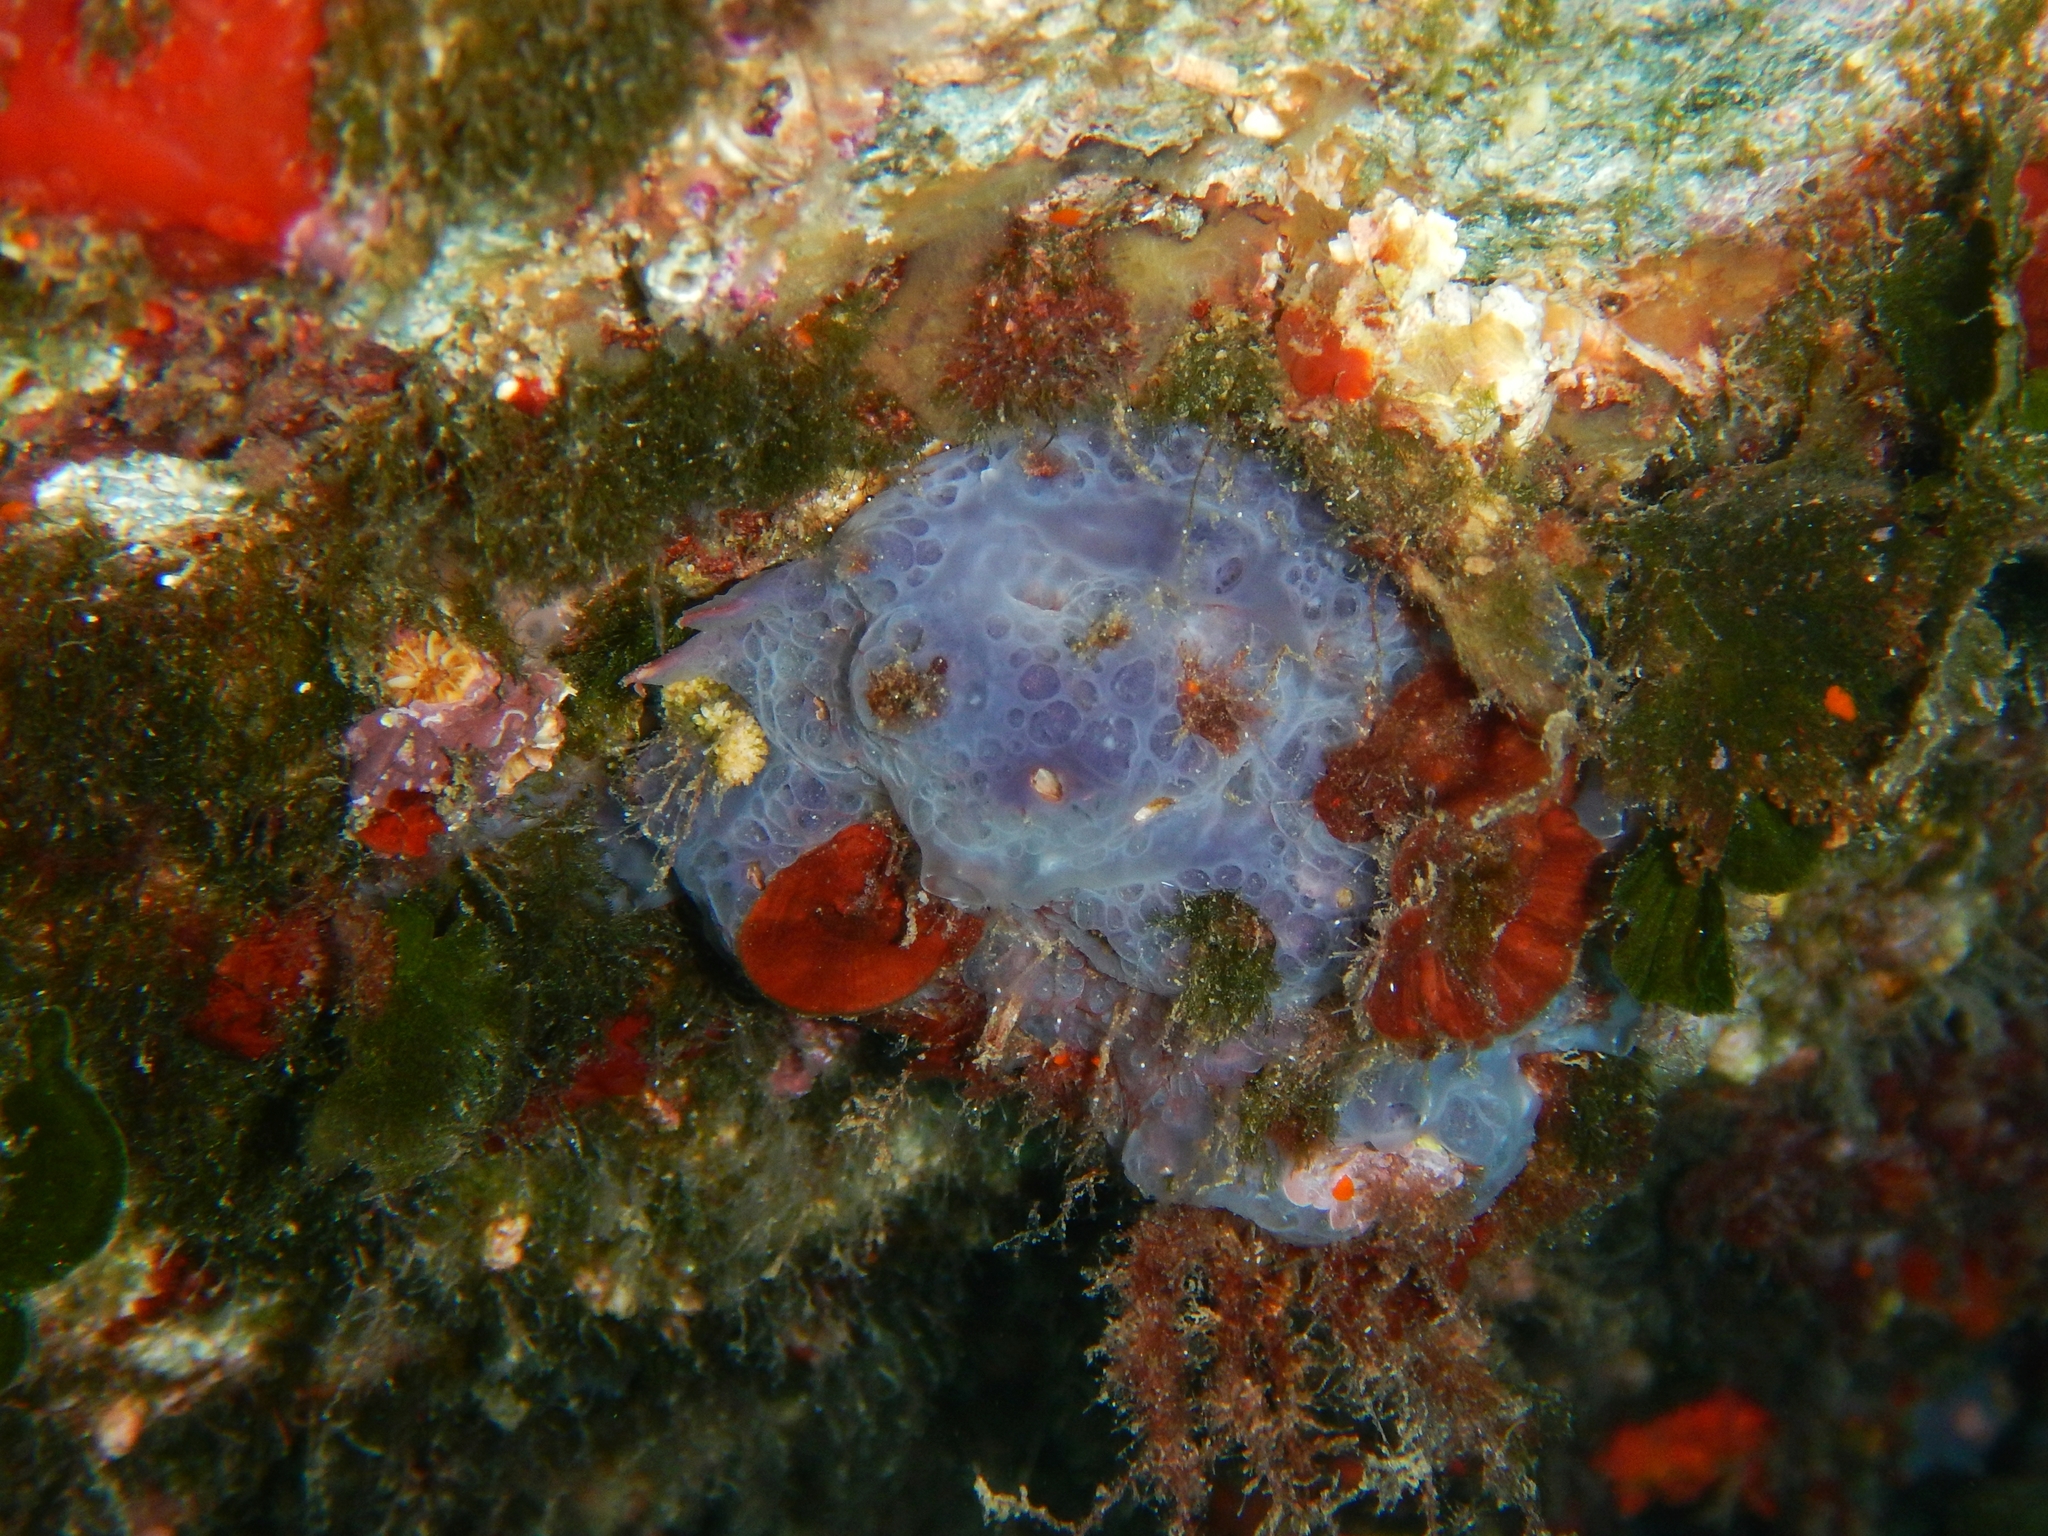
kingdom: Animalia
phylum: Porifera
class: Demospongiae
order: Poecilosclerida
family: Hymedesmiidae
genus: Phorbas
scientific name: Phorbas tenacior
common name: Bluish encrusting sponge
